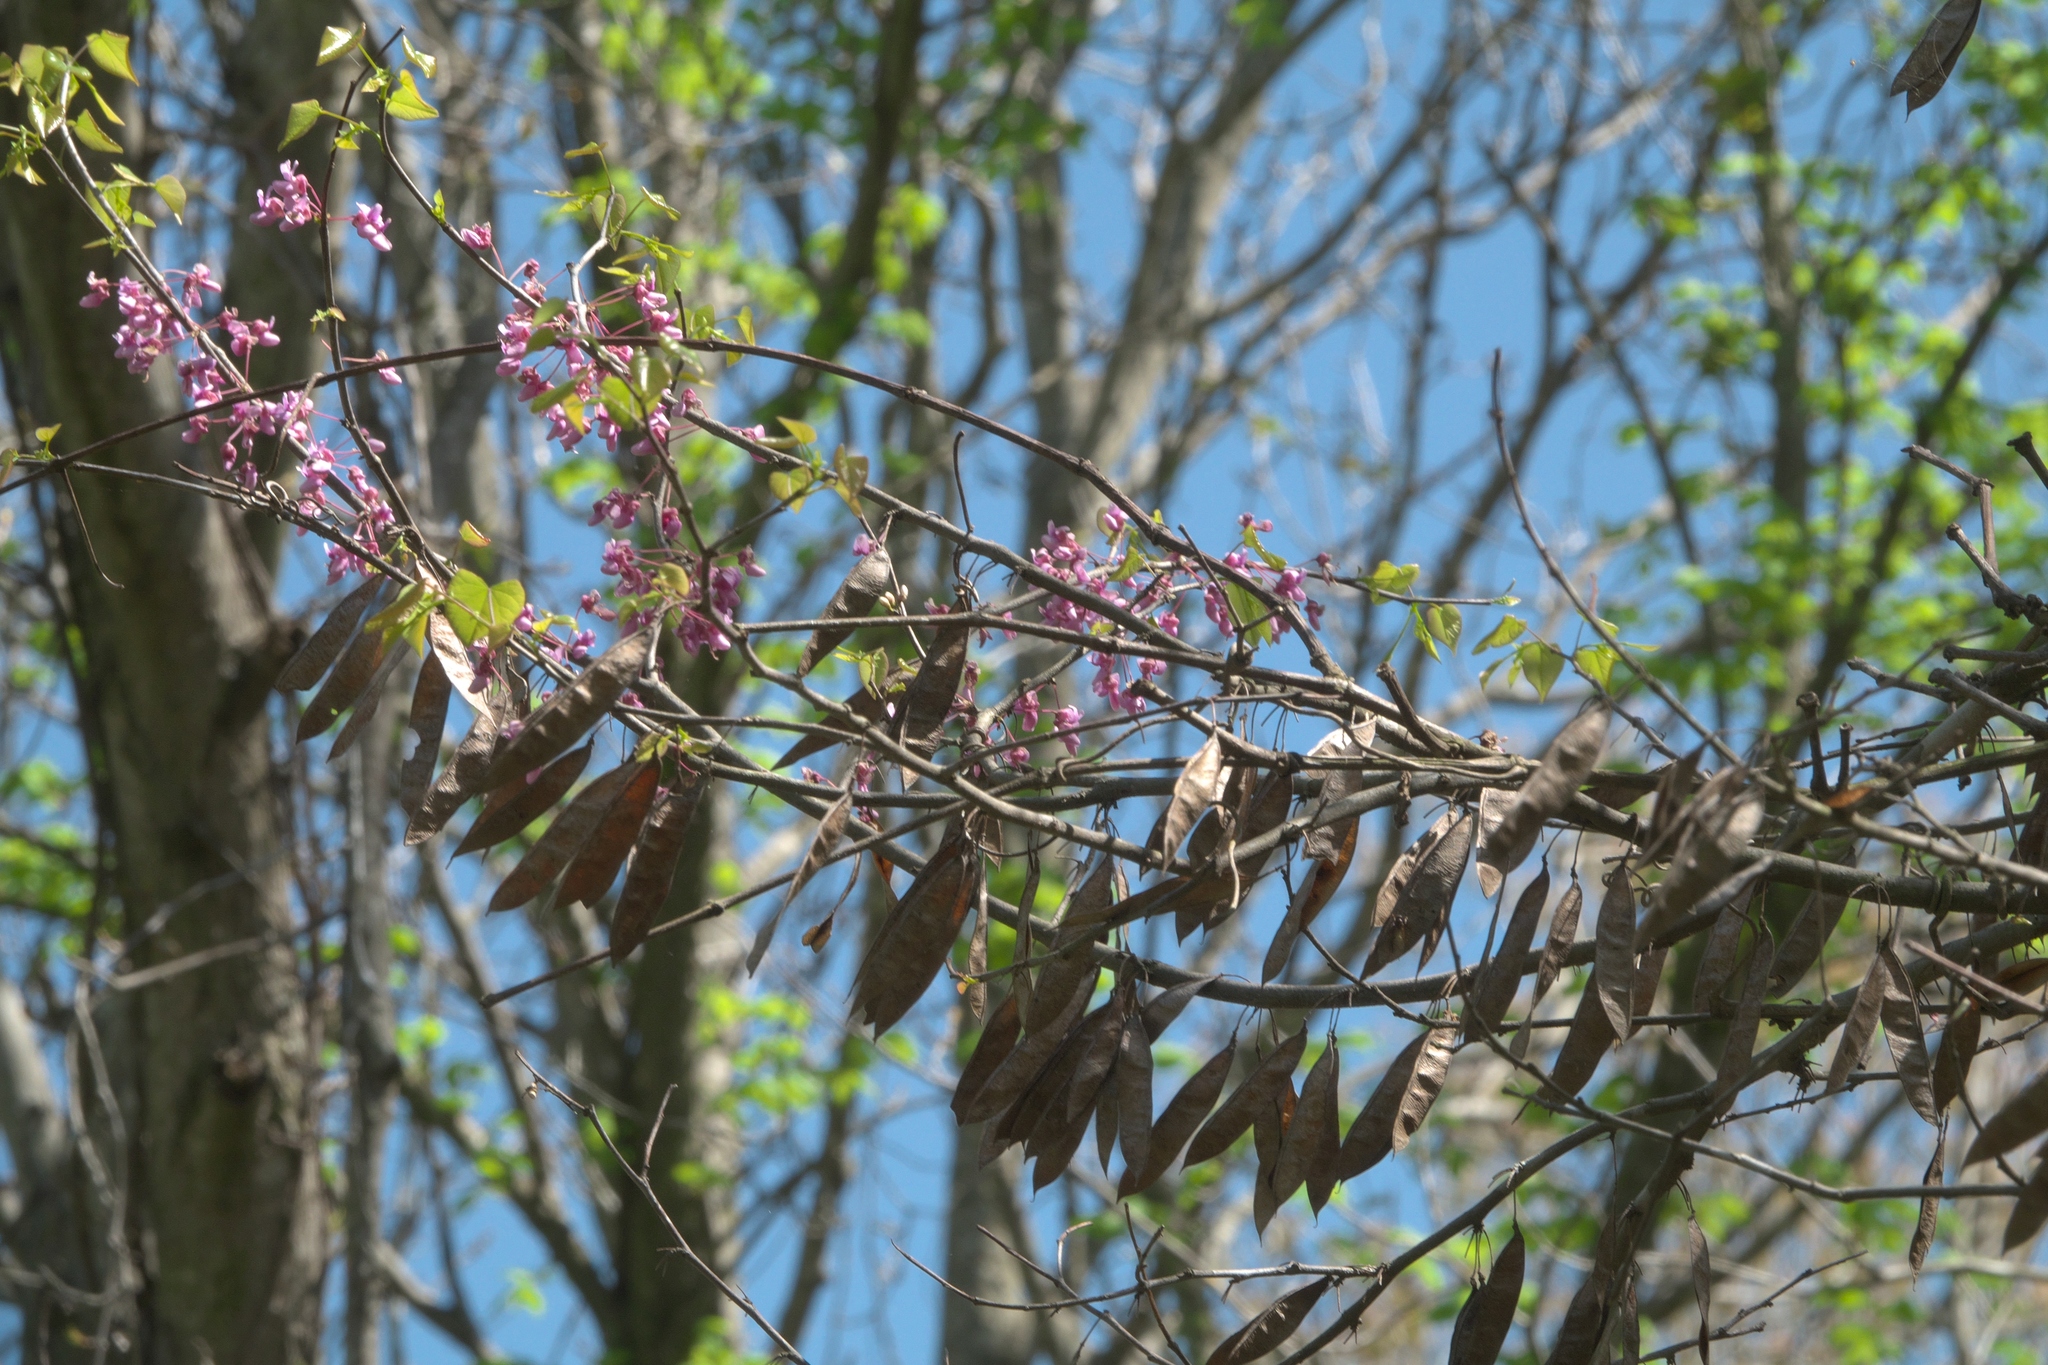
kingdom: Plantae
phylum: Tracheophyta
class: Magnoliopsida
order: Fabales
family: Fabaceae
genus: Cercis
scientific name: Cercis canadensis
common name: Eastern redbud
